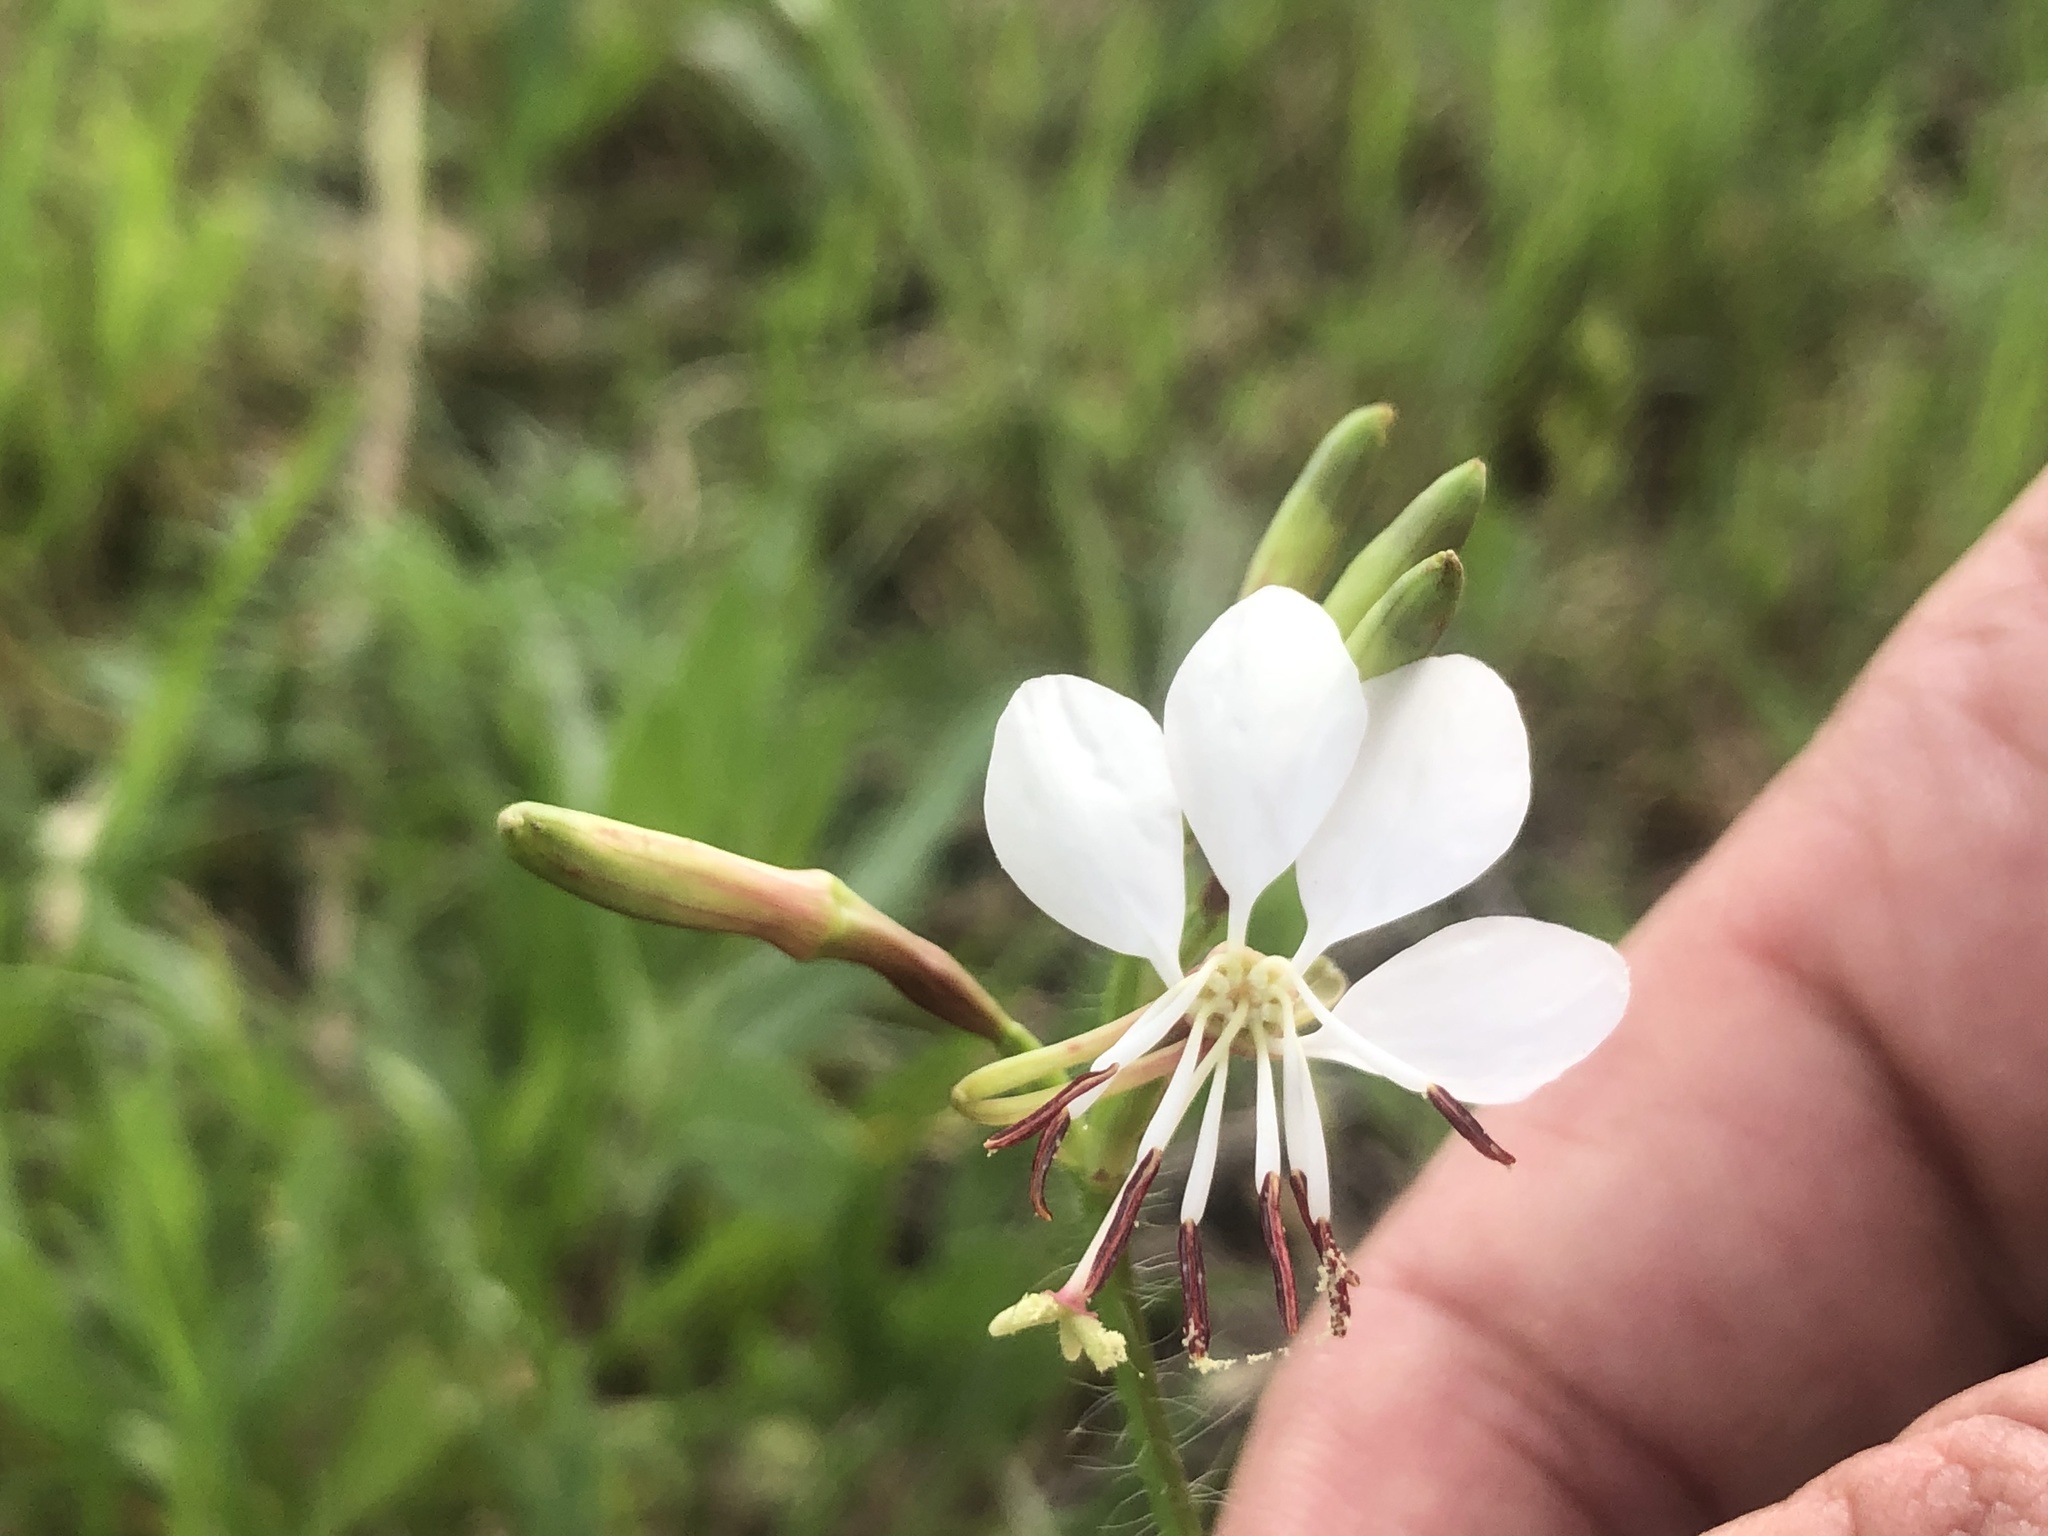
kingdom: Plantae
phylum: Tracheophyta
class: Magnoliopsida
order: Myrtales
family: Onagraceae
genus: Oenothera
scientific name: Oenothera suffulta
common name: Kisses
